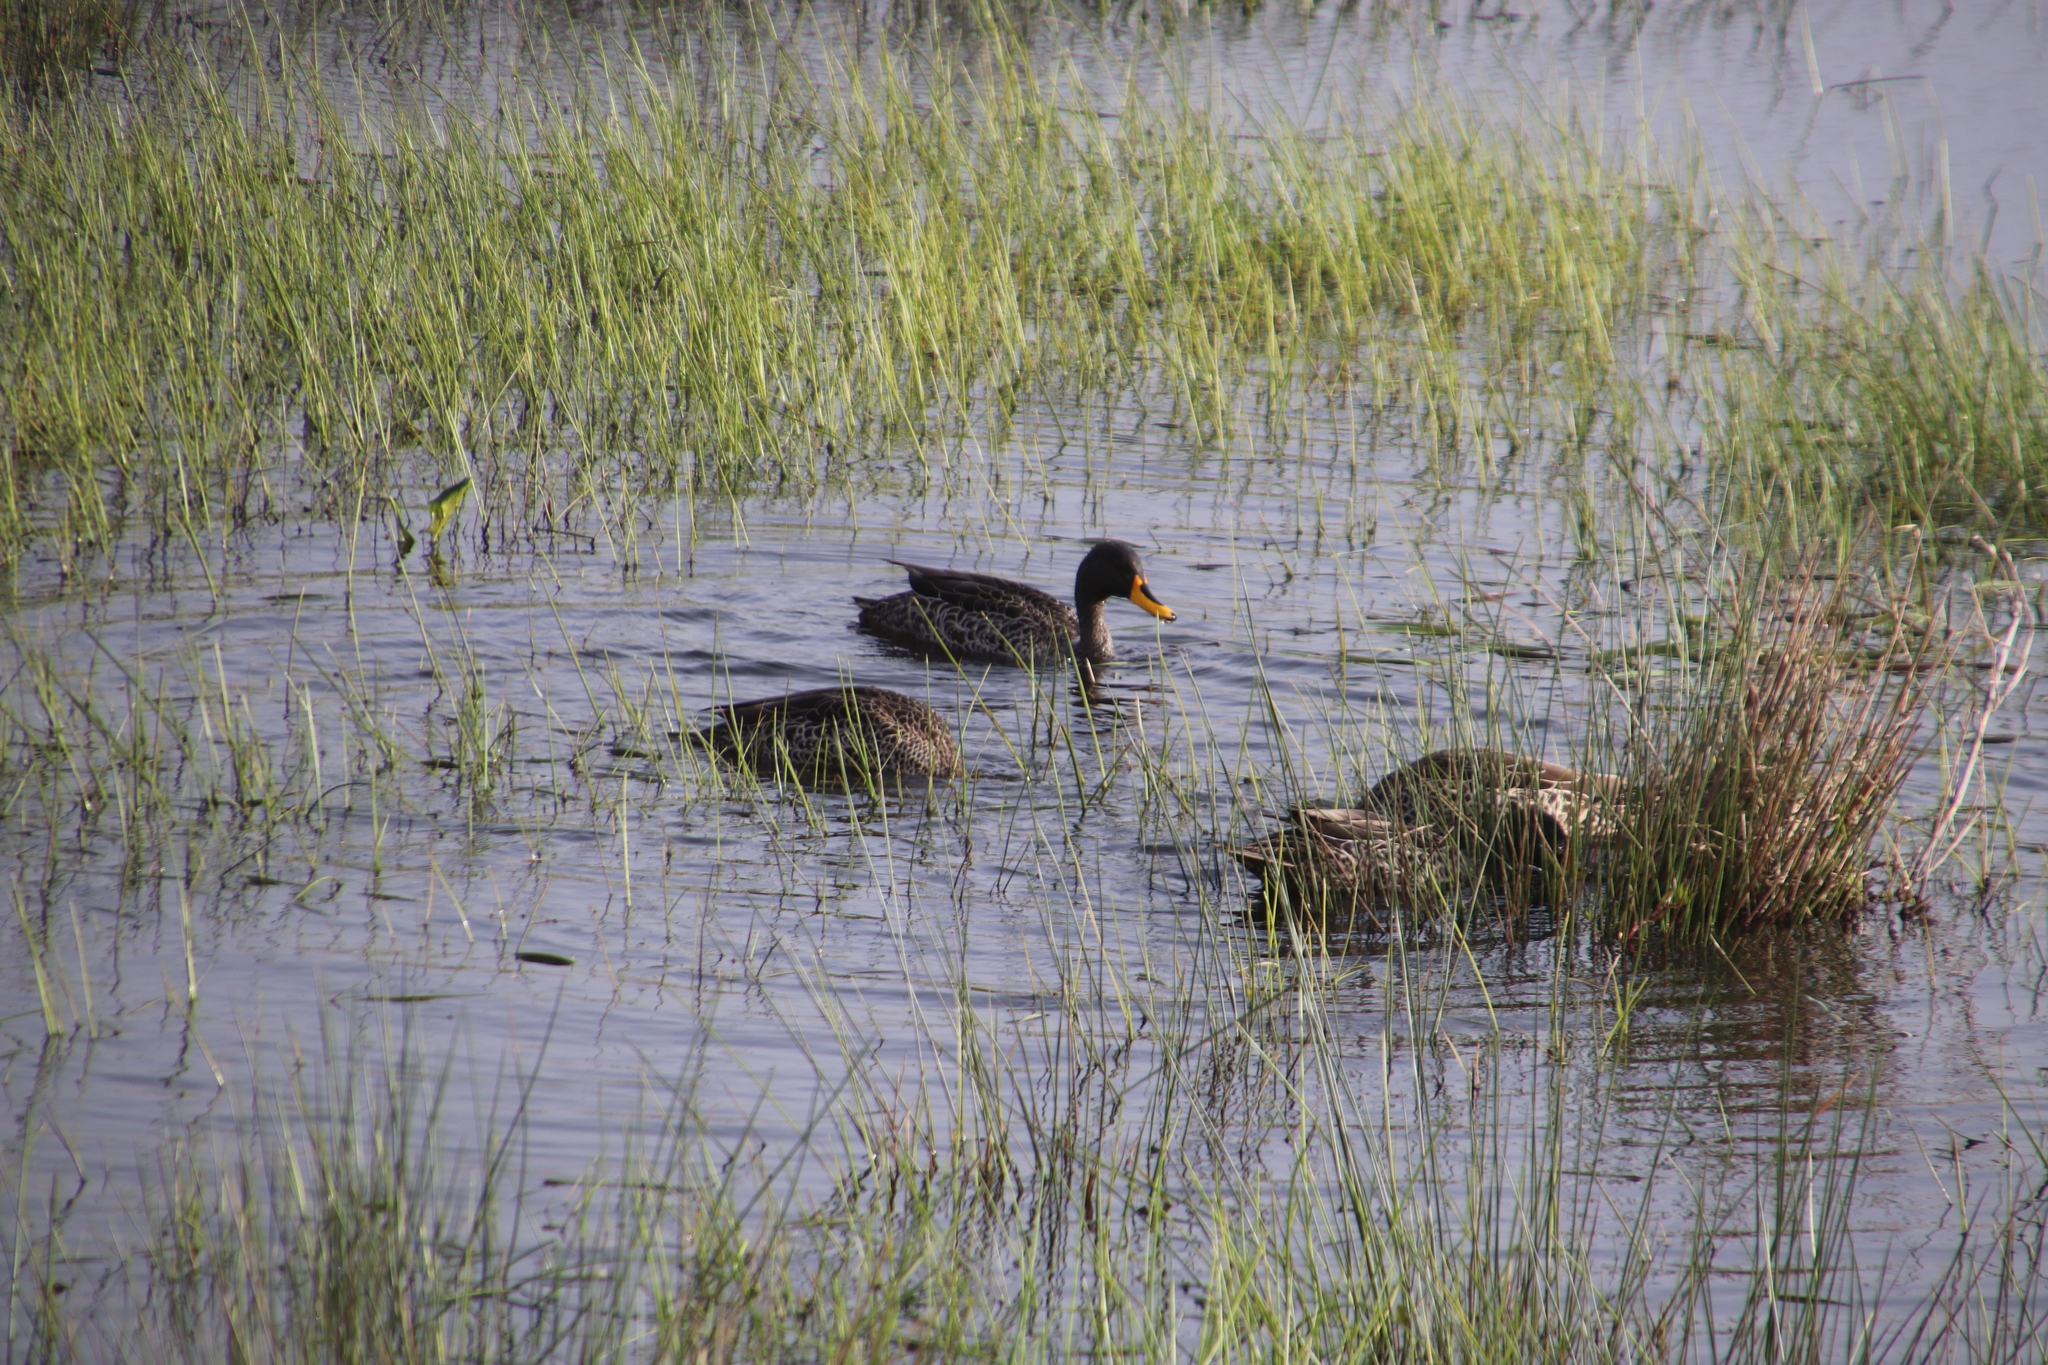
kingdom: Animalia
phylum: Chordata
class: Aves
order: Anseriformes
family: Anatidae
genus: Anas
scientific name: Anas undulata
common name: Yellow-billed duck
